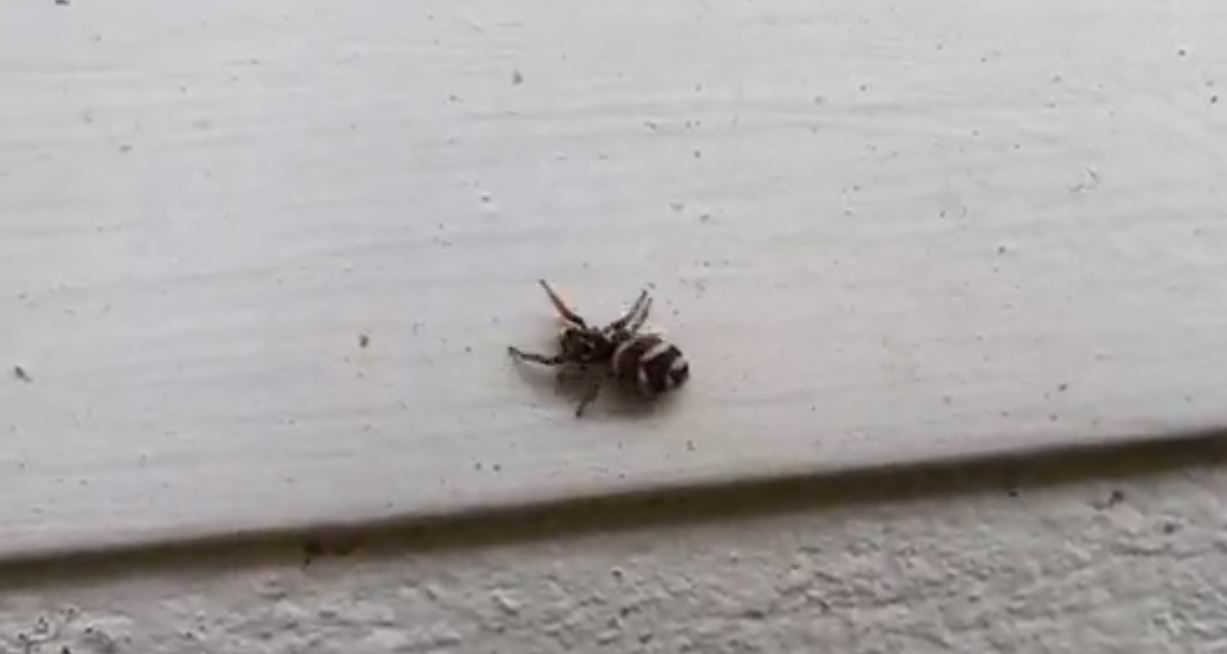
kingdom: Animalia
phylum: Arthropoda
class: Arachnida
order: Araneae
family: Salticidae
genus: Salticus
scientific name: Salticus scenicus
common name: Zebra jumper
